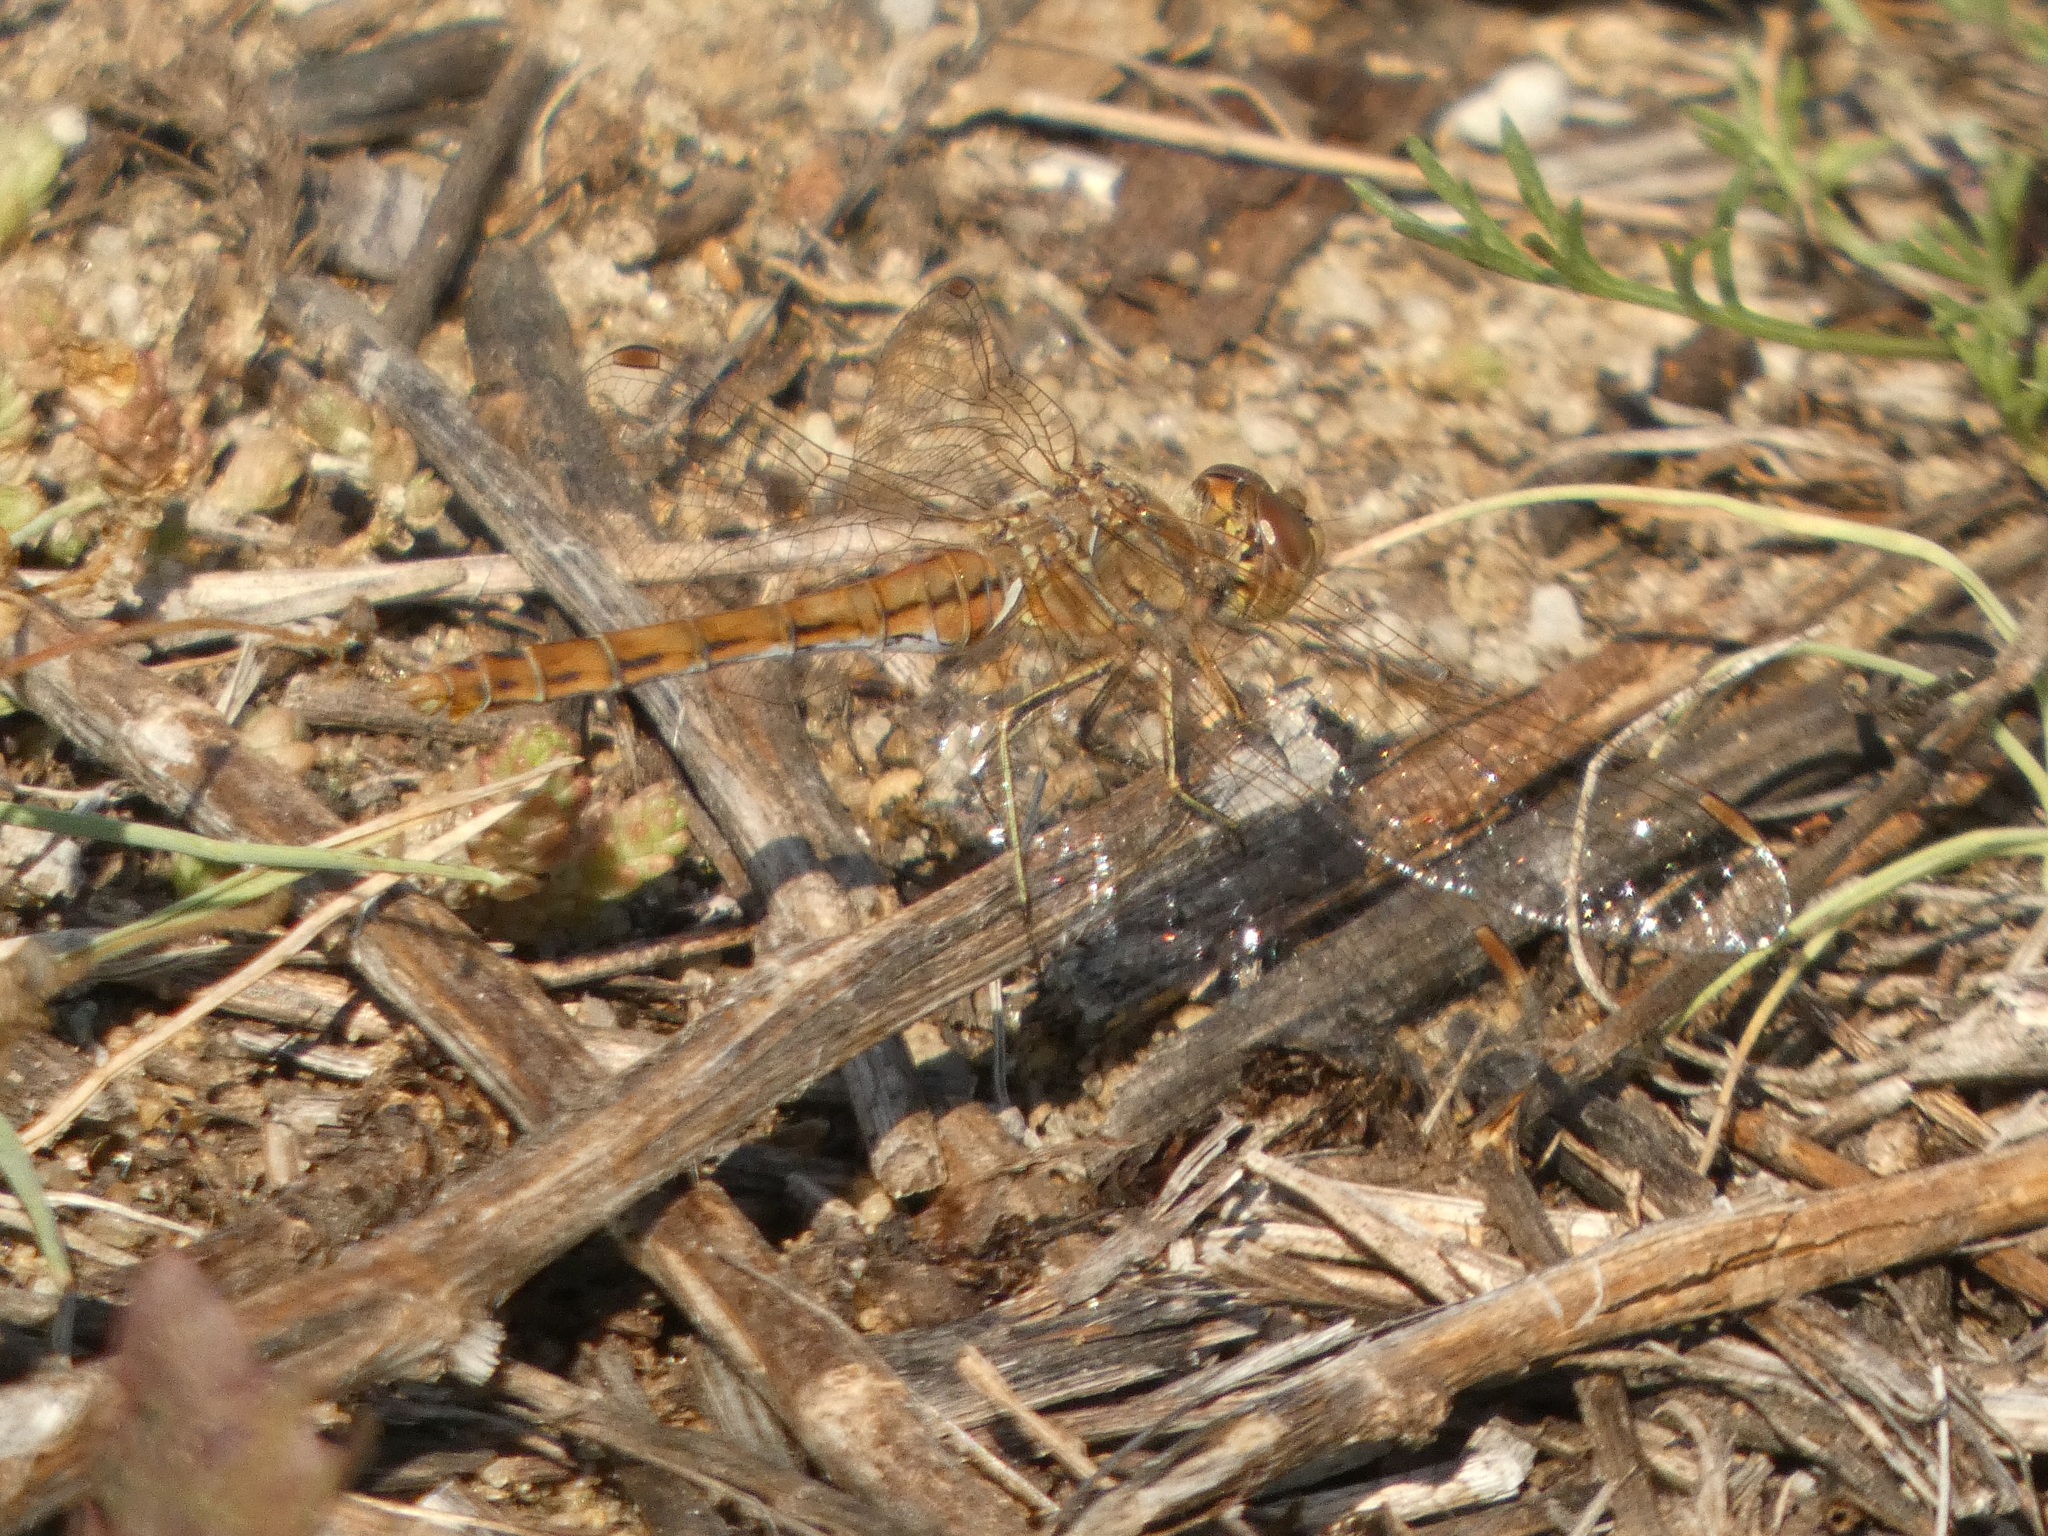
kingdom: Animalia
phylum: Arthropoda
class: Insecta
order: Odonata
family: Libellulidae
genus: Sympetrum
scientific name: Sympetrum vulgatum
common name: Vagrant darter
